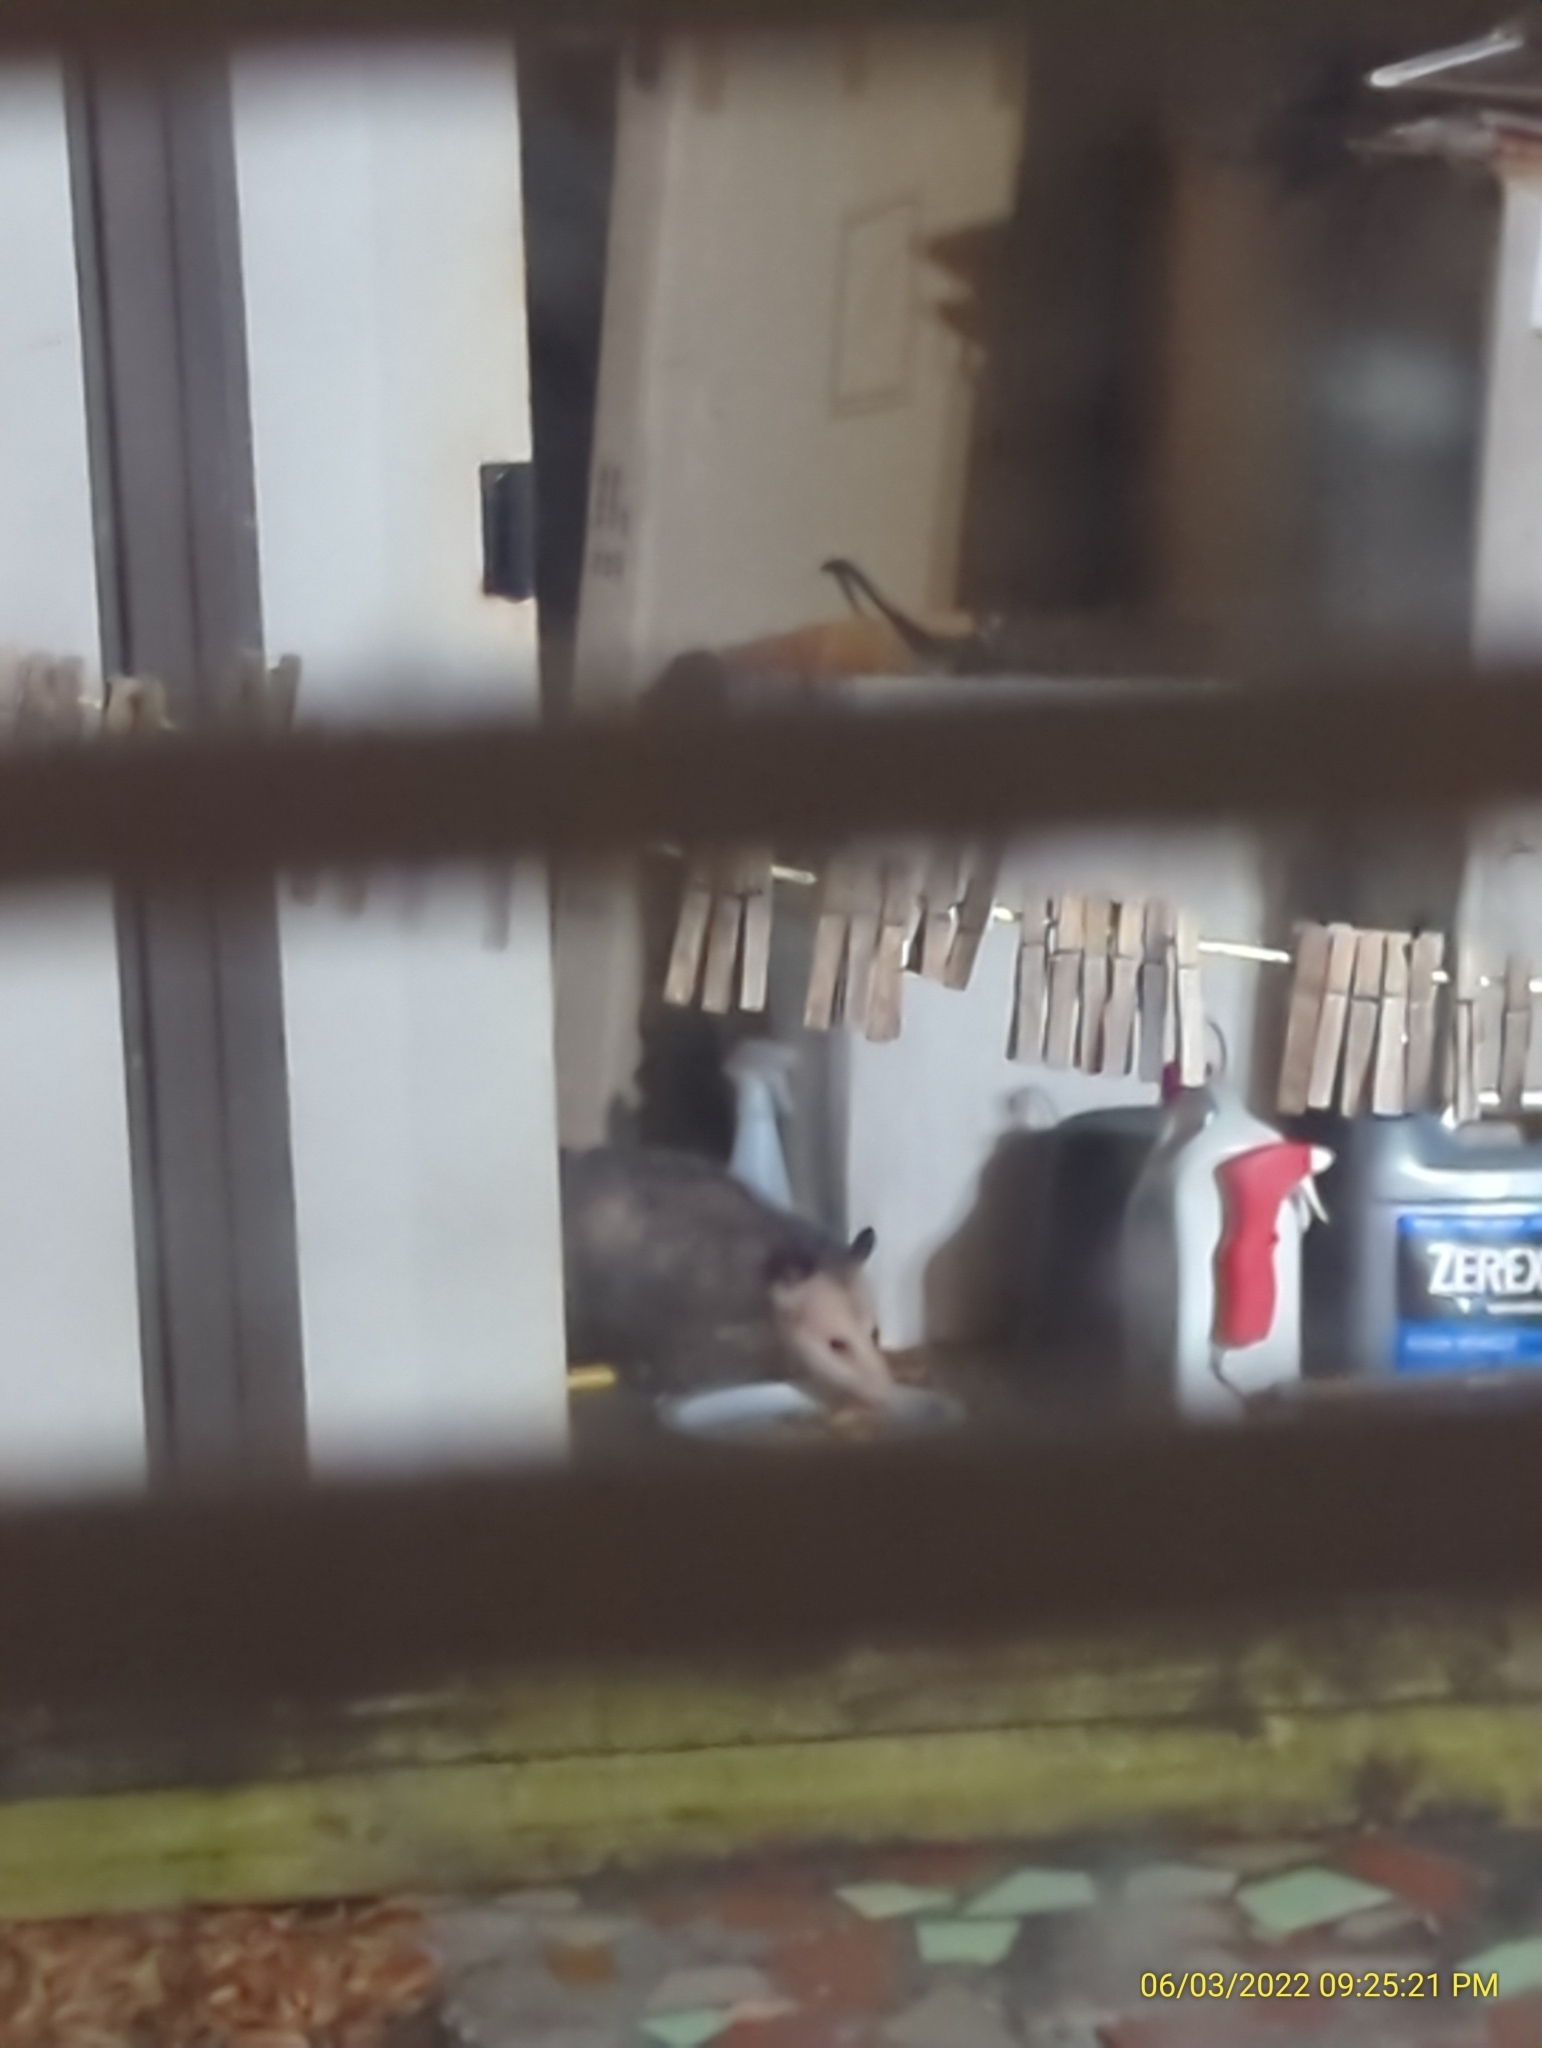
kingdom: Animalia
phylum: Chordata
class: Mammalia
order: Didelphimorphia
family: Didelphidae
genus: Didelphis
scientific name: Didelphis virginiana
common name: Virginia opossum
